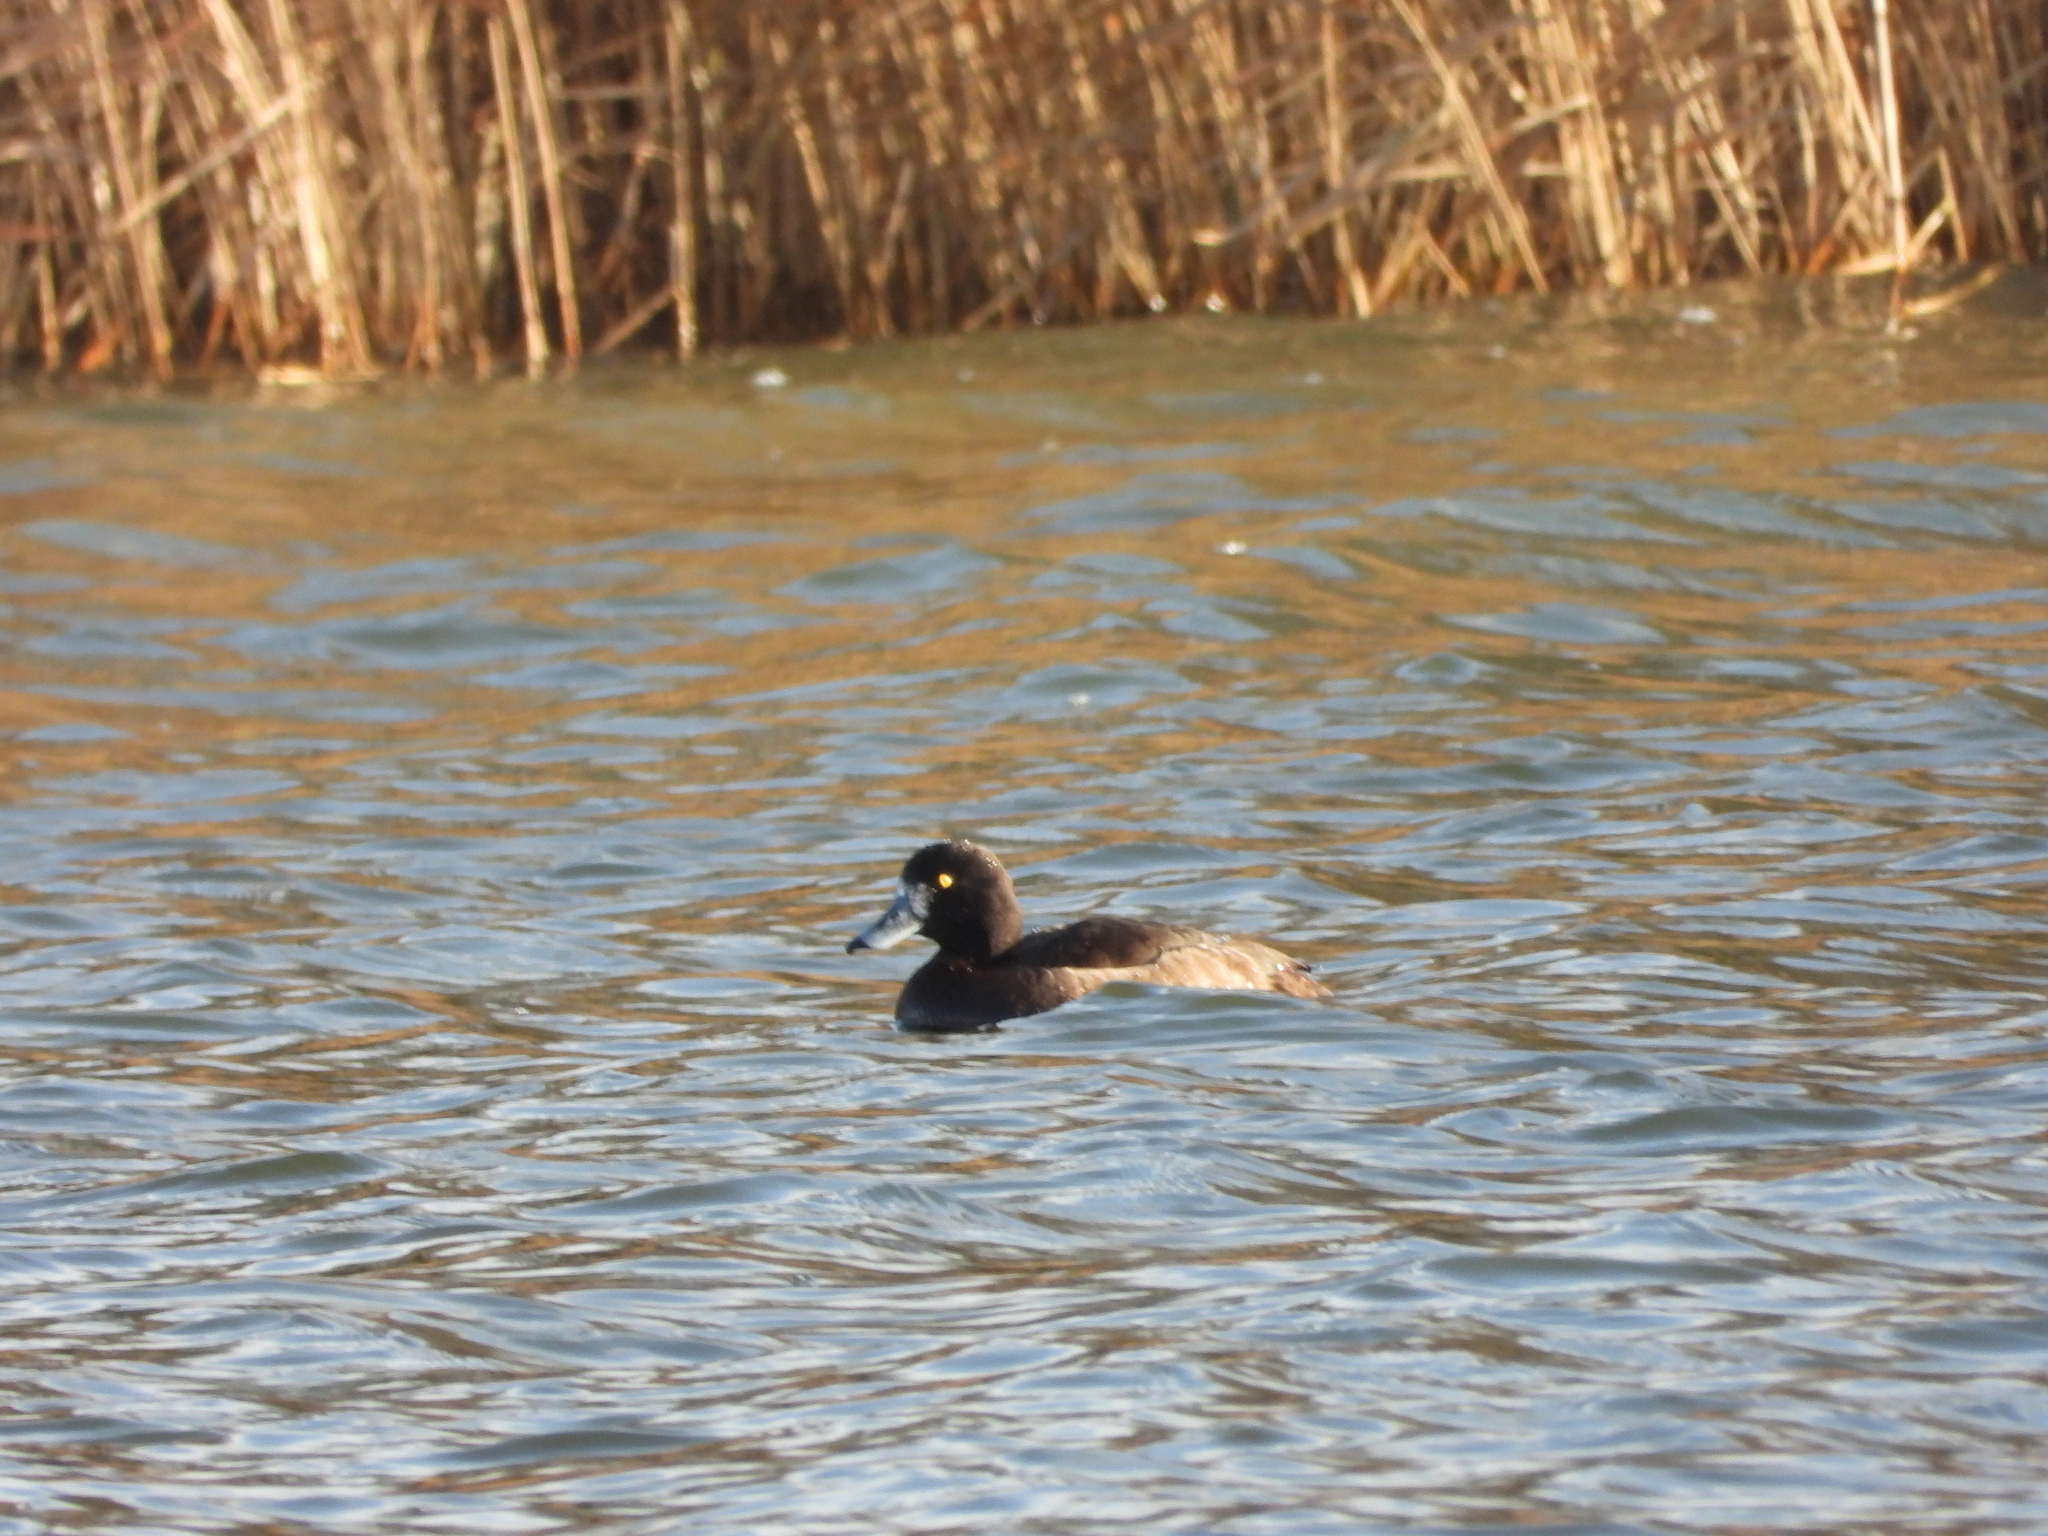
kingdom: Animalia
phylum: Chordata
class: Aves
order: Anseriformes
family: Anatidae
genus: Aythya
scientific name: Aythya fuligula
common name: Tufted duck
